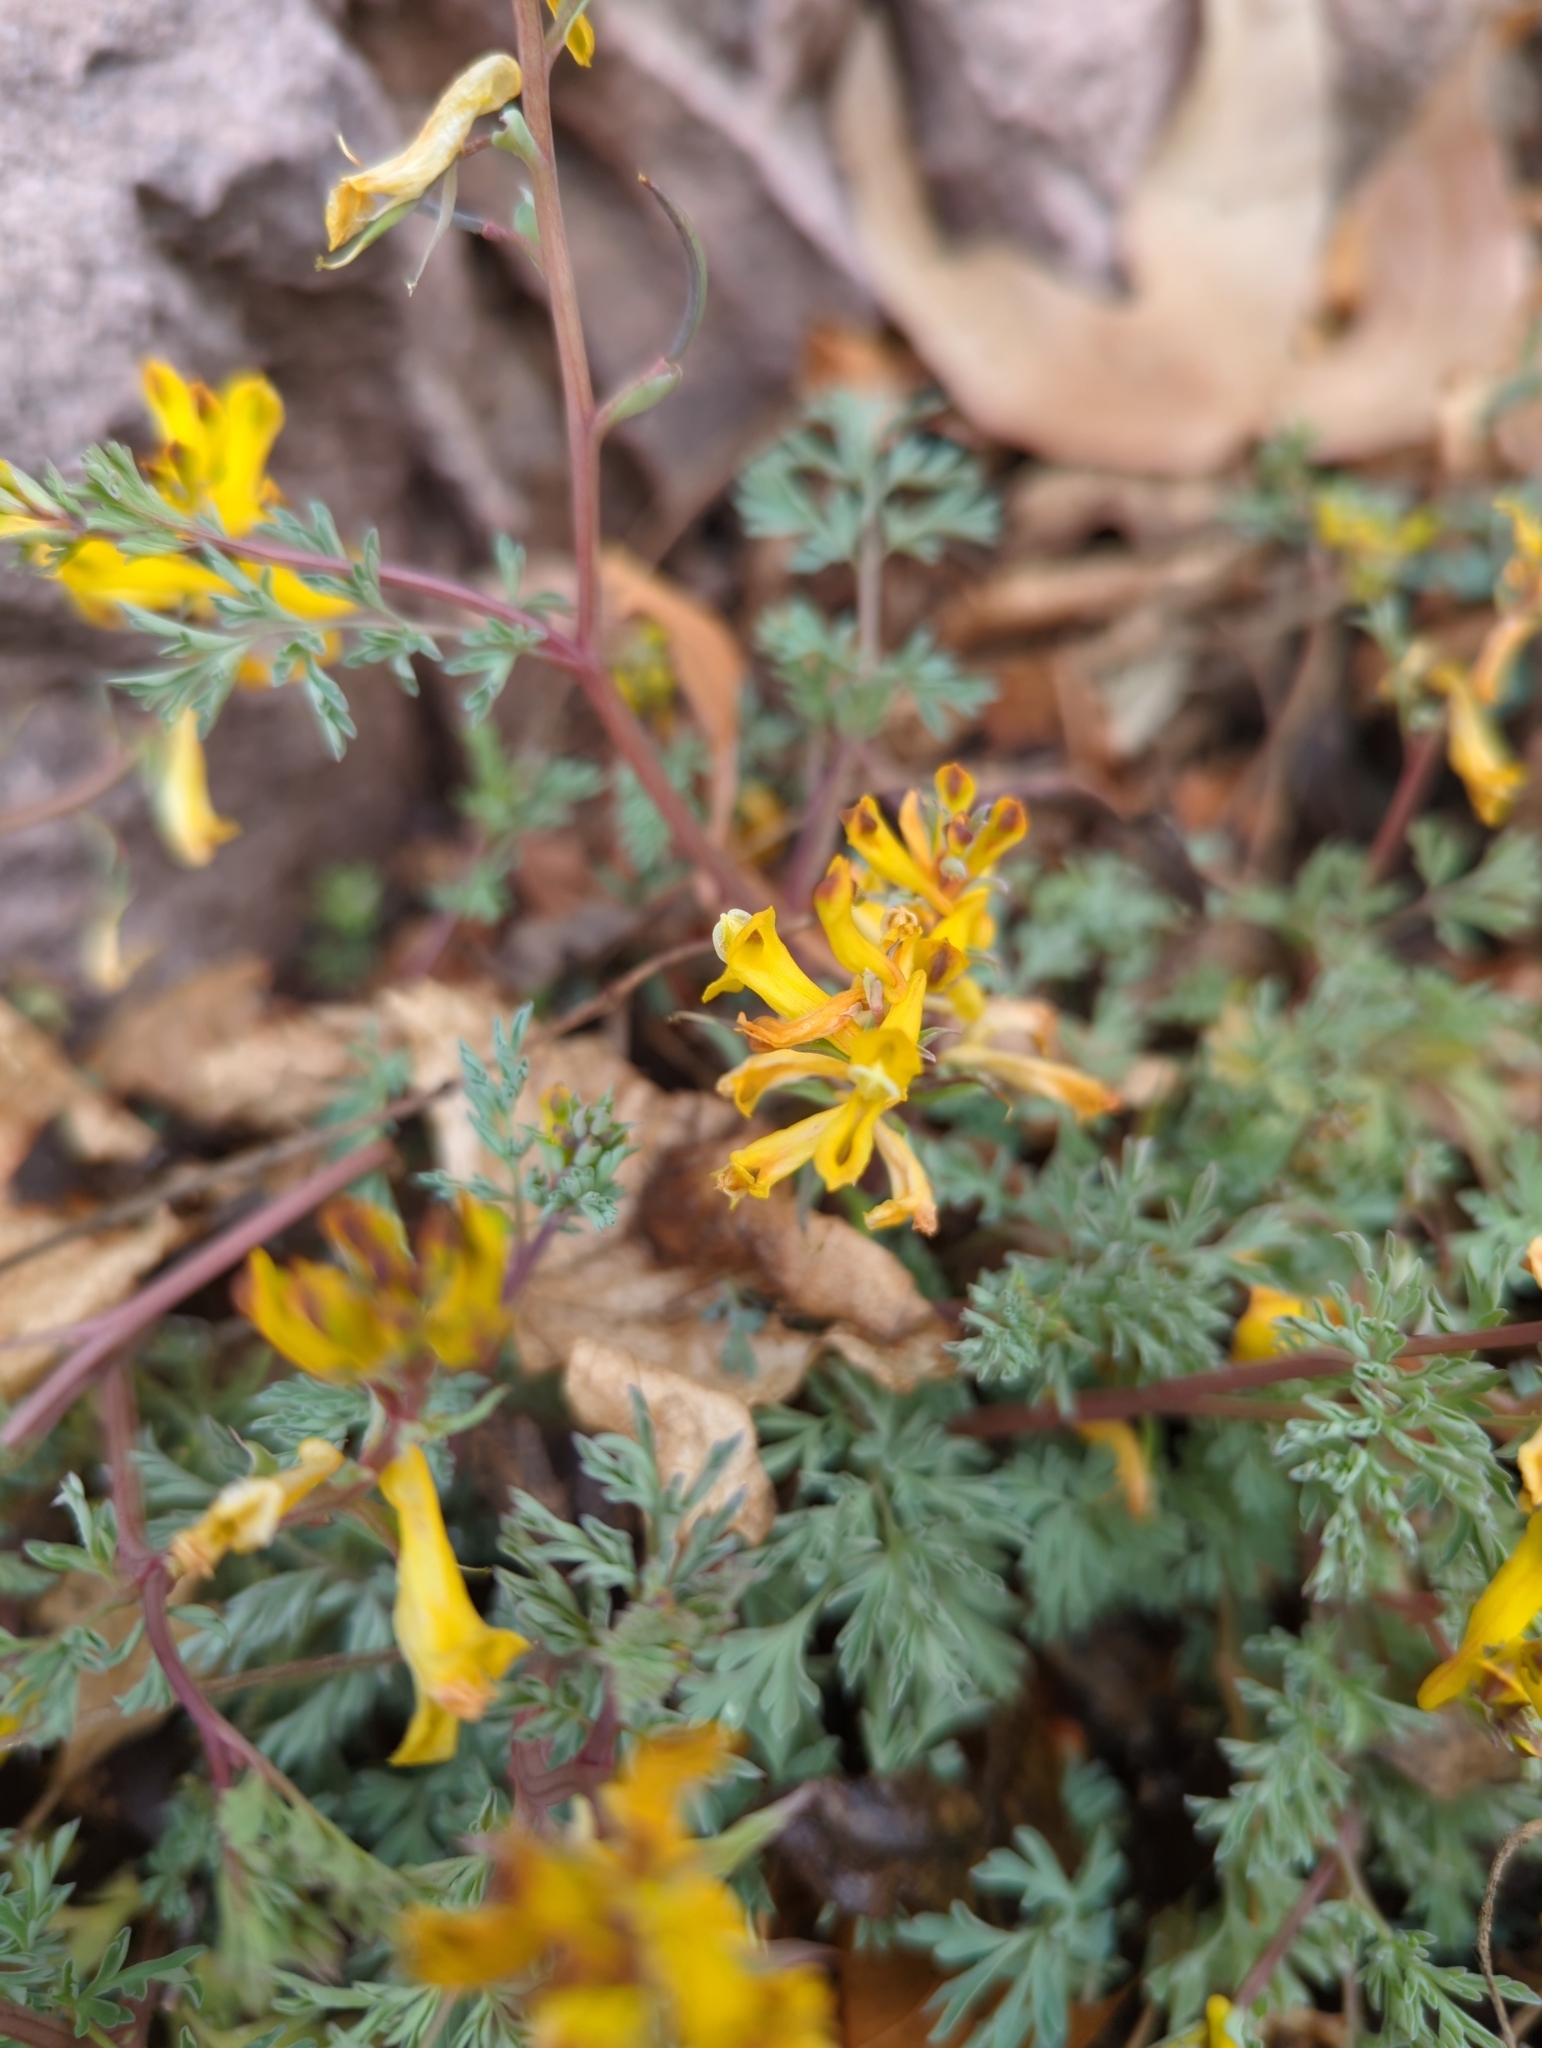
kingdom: Plantae
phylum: Tracheophyta
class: Magnoliopsida
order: Ranunculales
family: Papaveraceae
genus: Corydalis
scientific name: Corydalis aurea
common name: Golden corydalis
